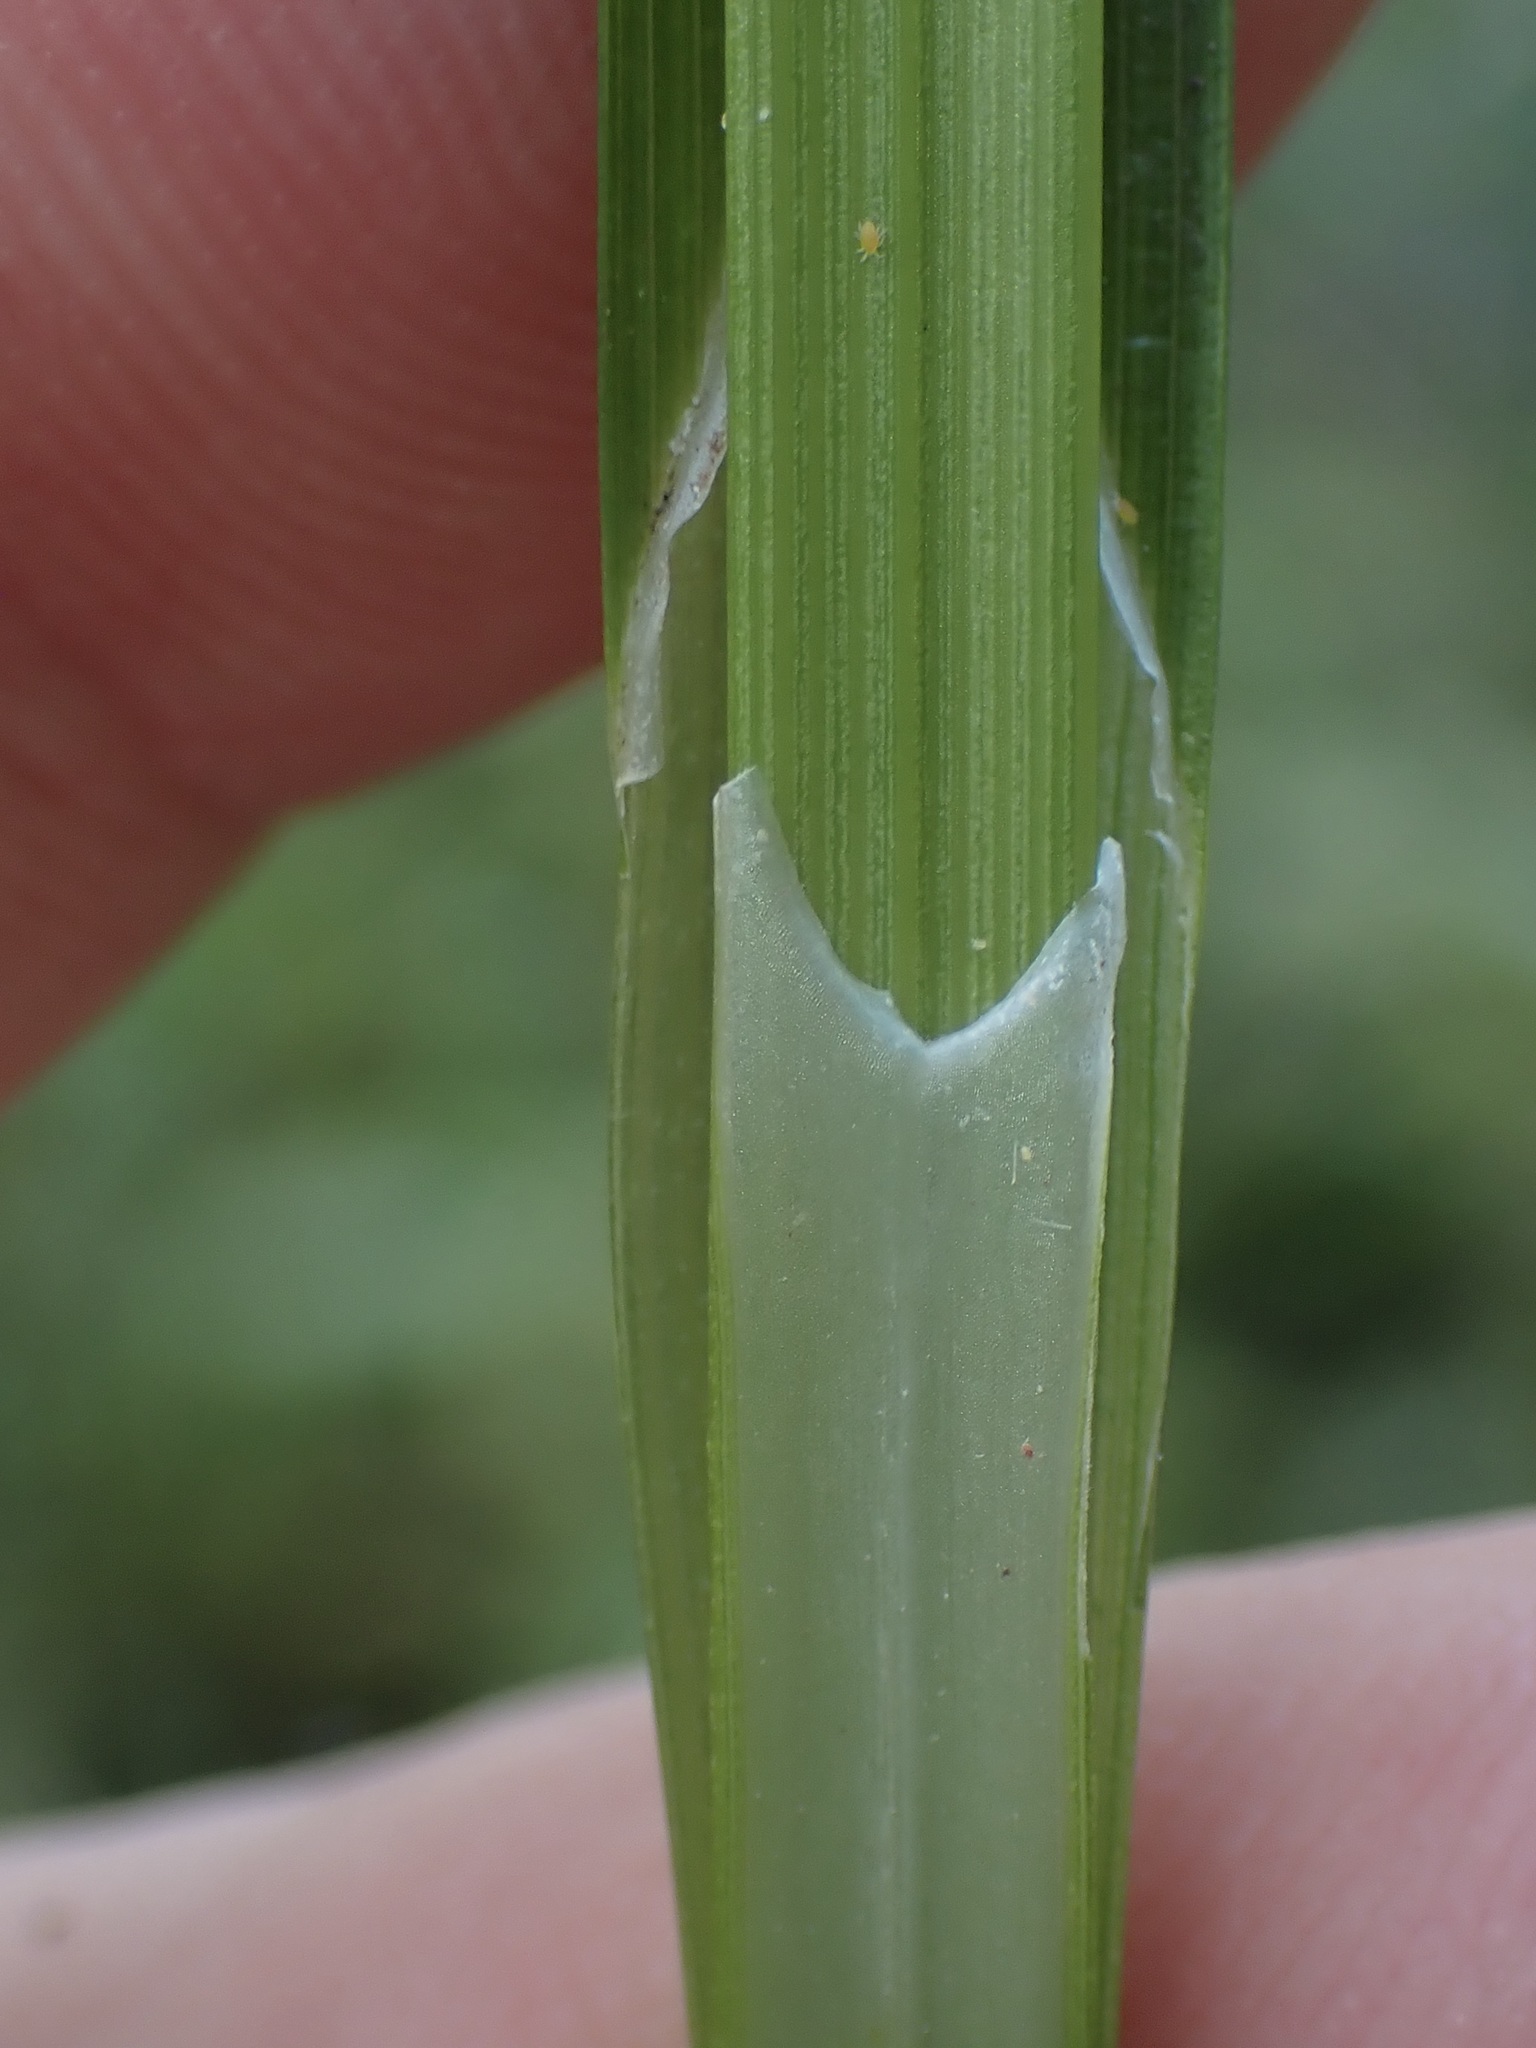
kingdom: Plantae
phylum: Tracheophyta
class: Liliopsida
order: Poales
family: Cyperaceae
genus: Carex
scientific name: Carex otrubae
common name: False fox-sedge
